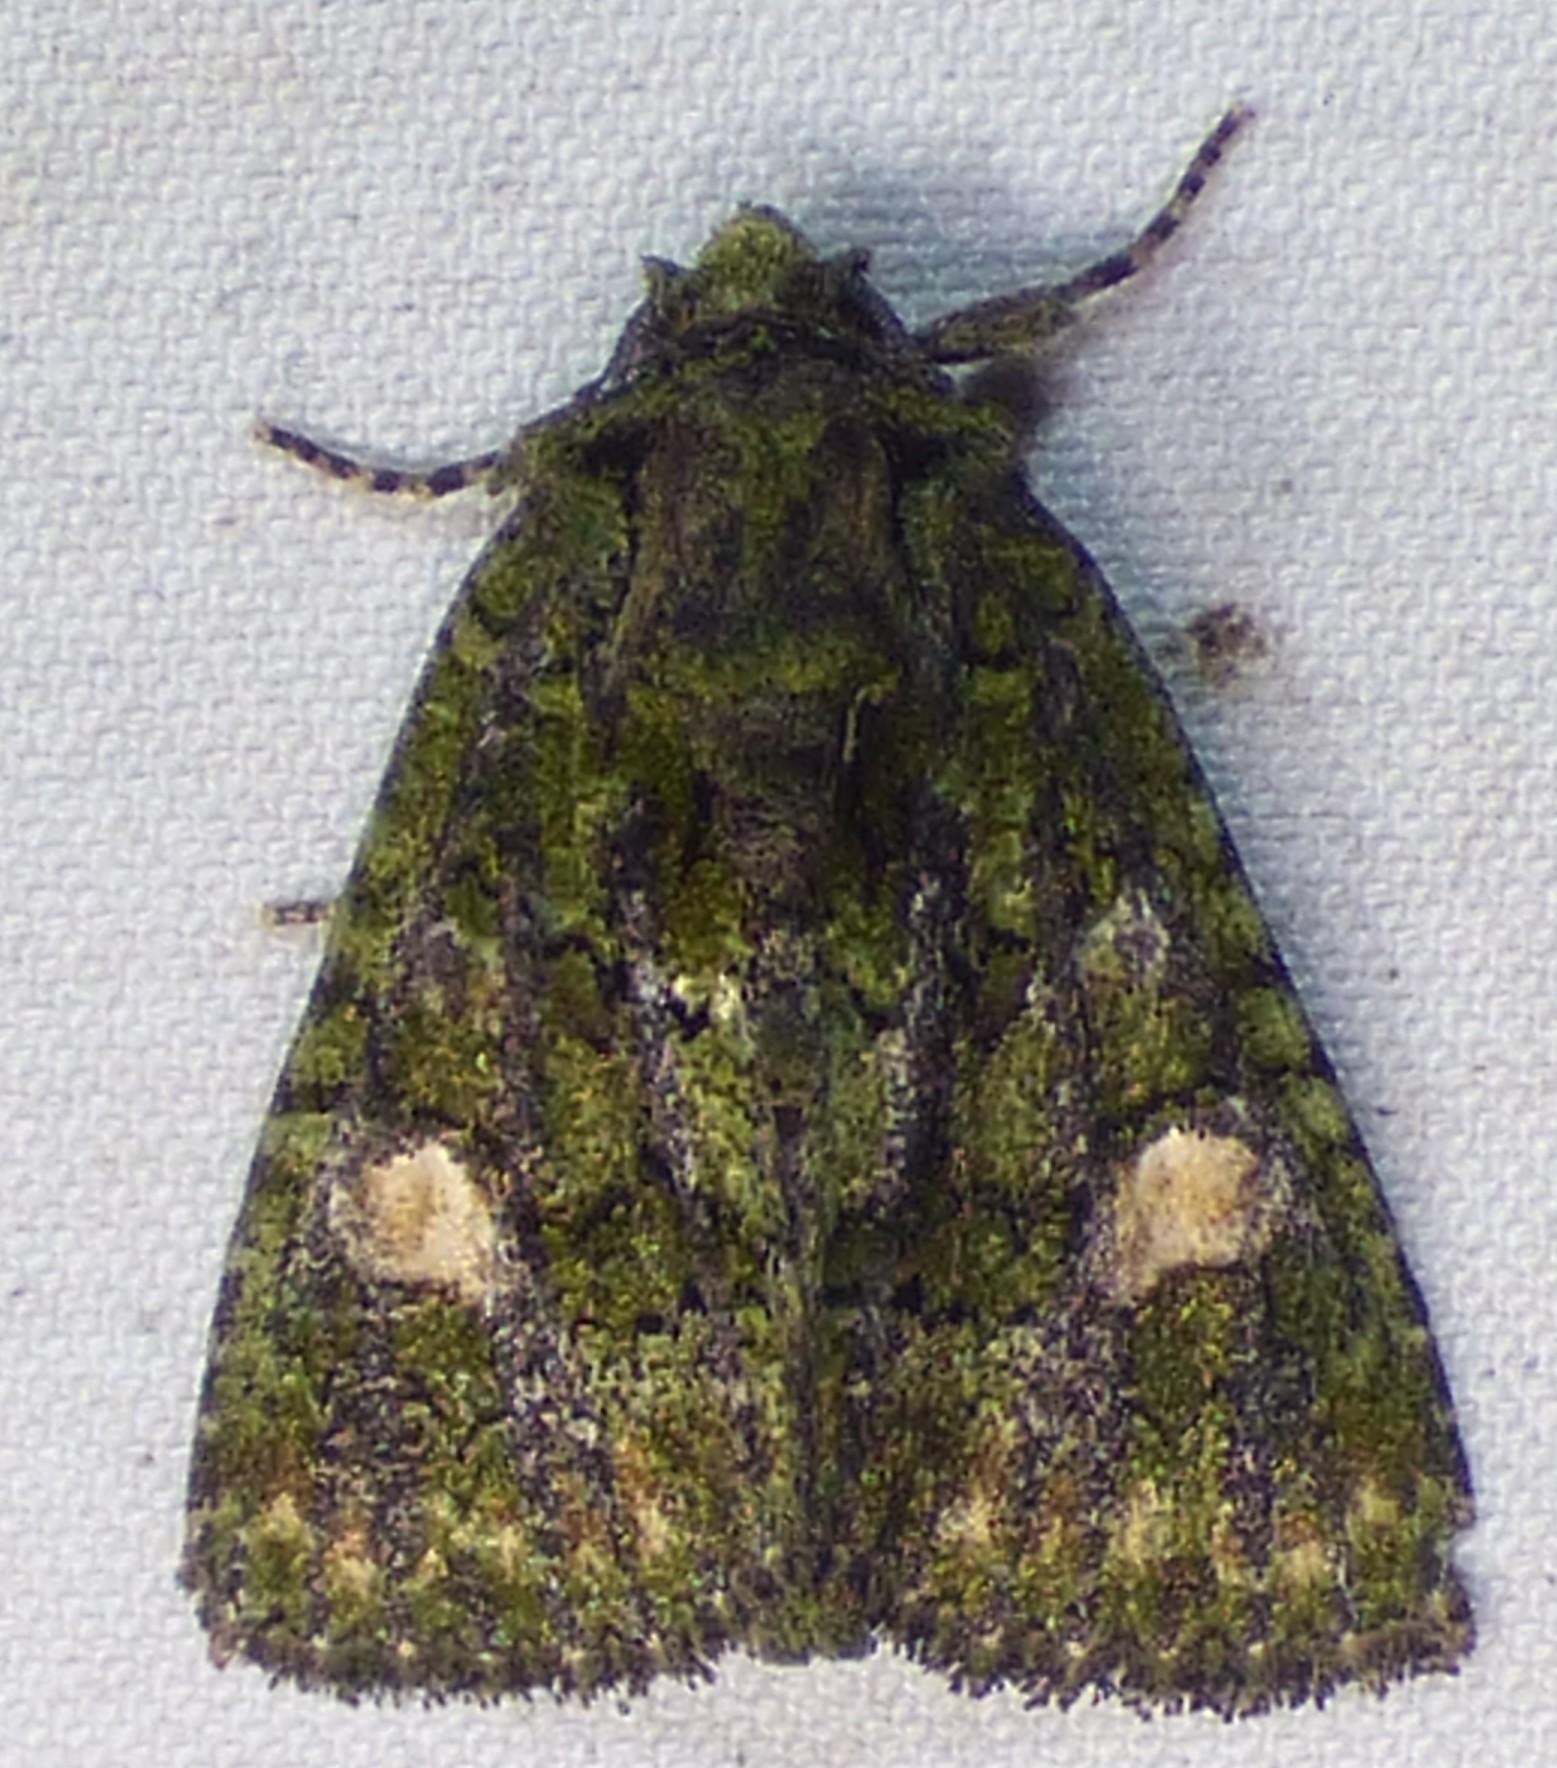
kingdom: Animalia
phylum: Arthropoda
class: Insecta
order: Lepidoptera
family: Noctuidae
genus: Phosphila
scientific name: Phosphila miselioides
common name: Spotted phosphila moth
